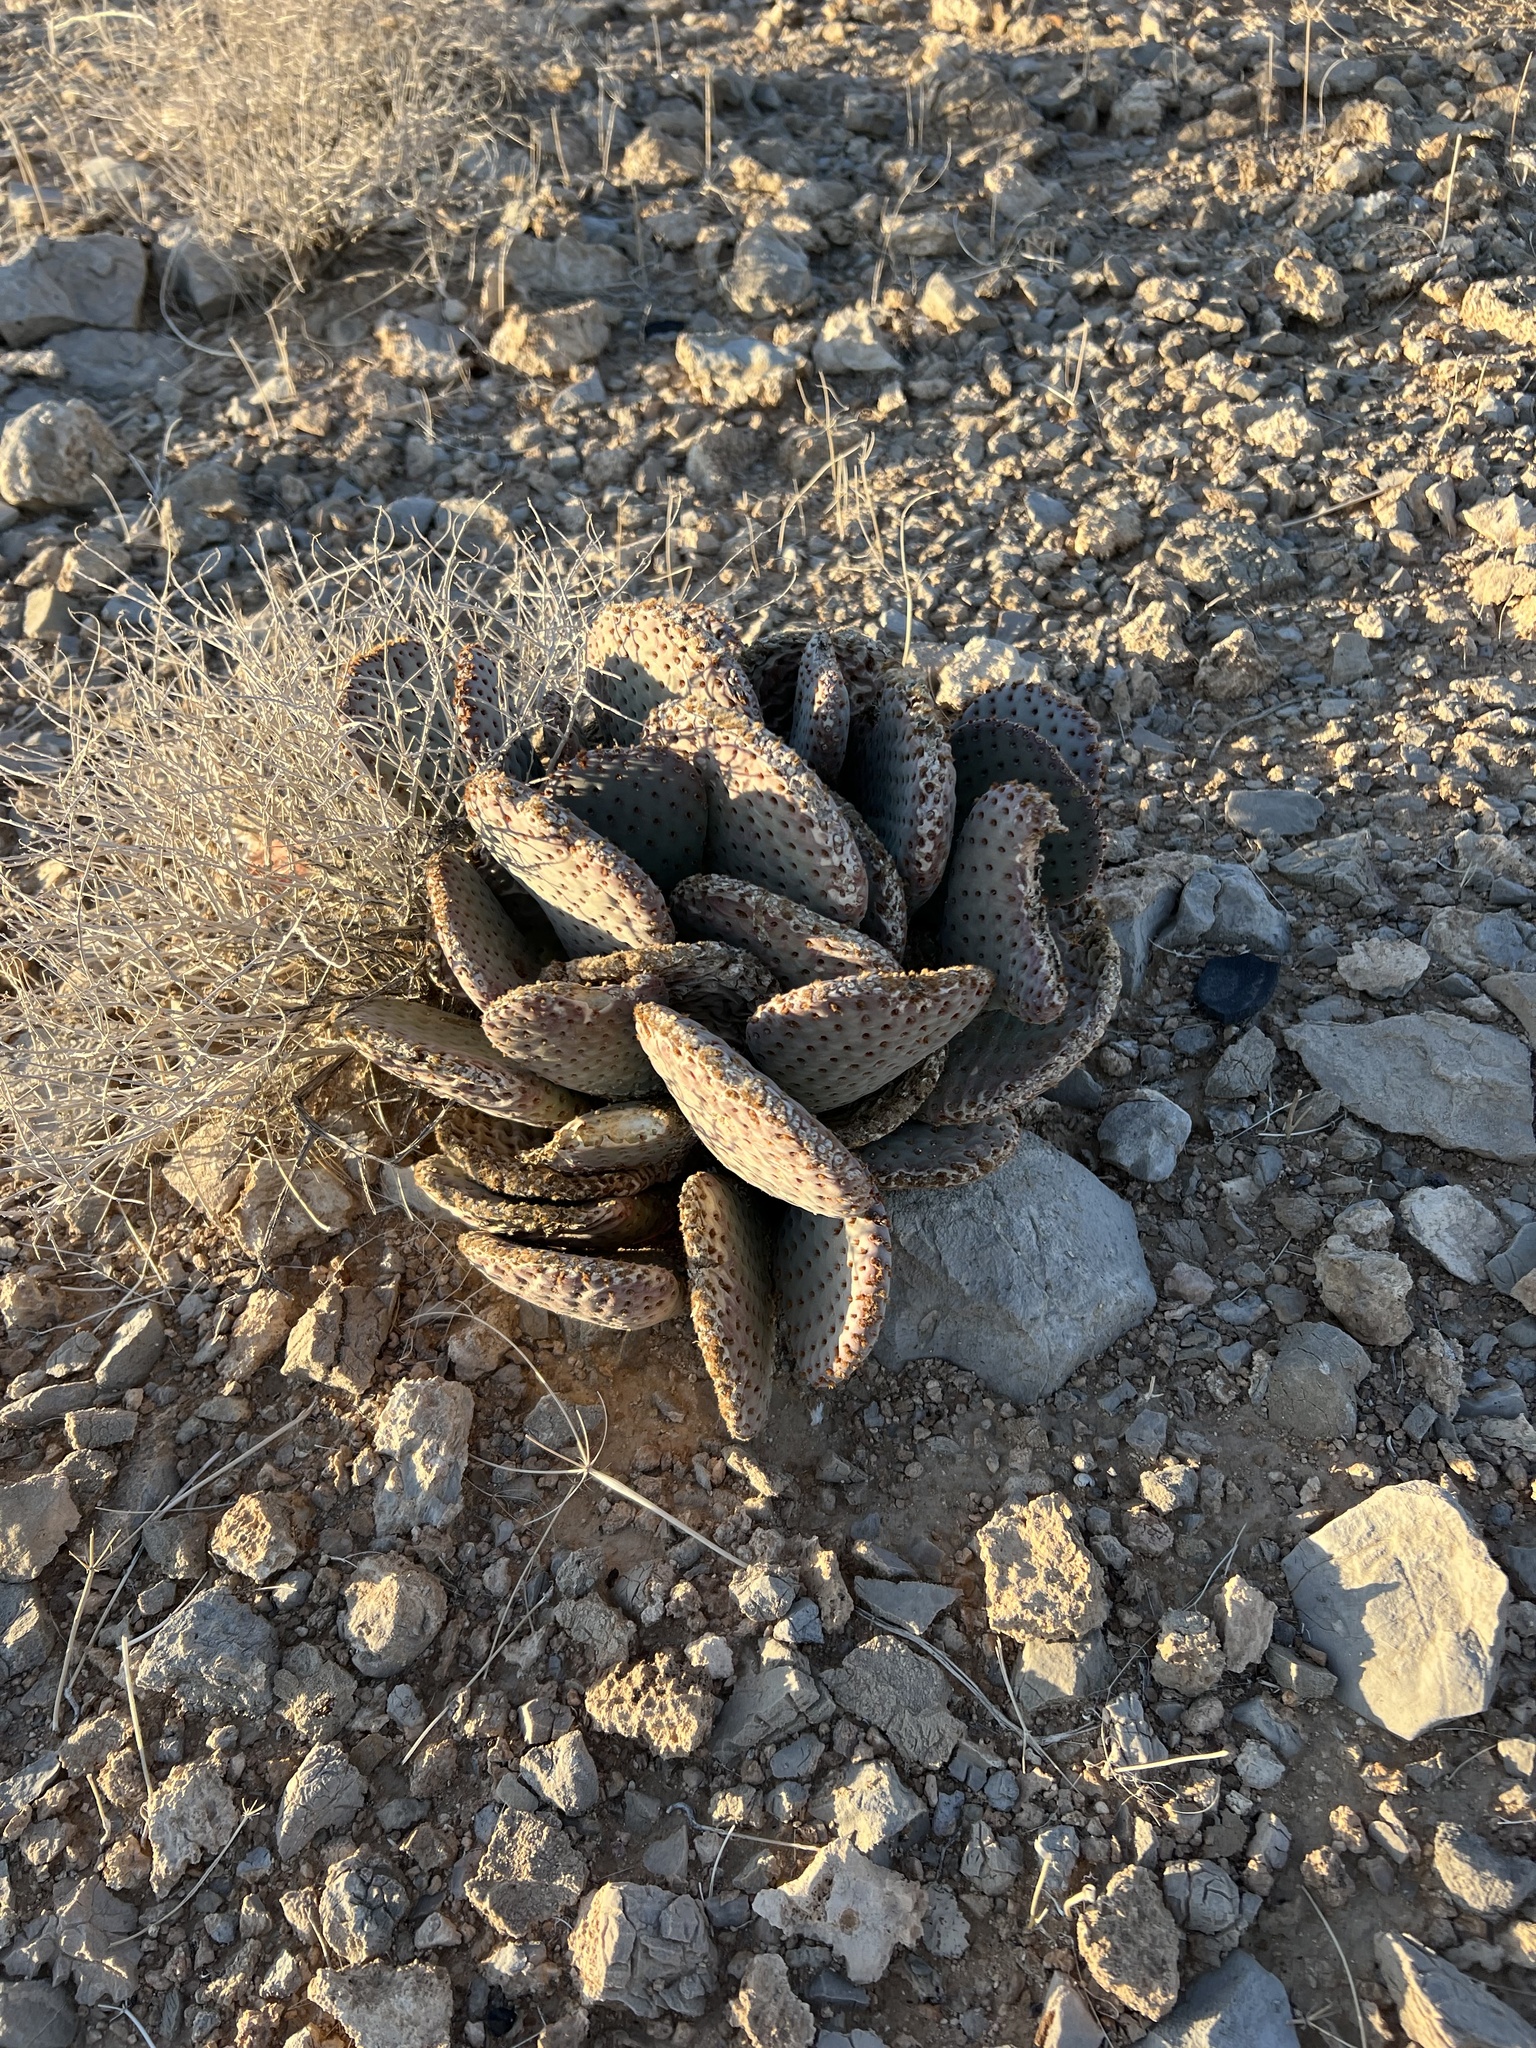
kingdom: Plantae
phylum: Tracheophyta
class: Magnoliopsida
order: Caryophyllales
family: Cactaceae
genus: Opuntia
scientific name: Opuntia basilaris
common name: Beavertail prickly-pear
